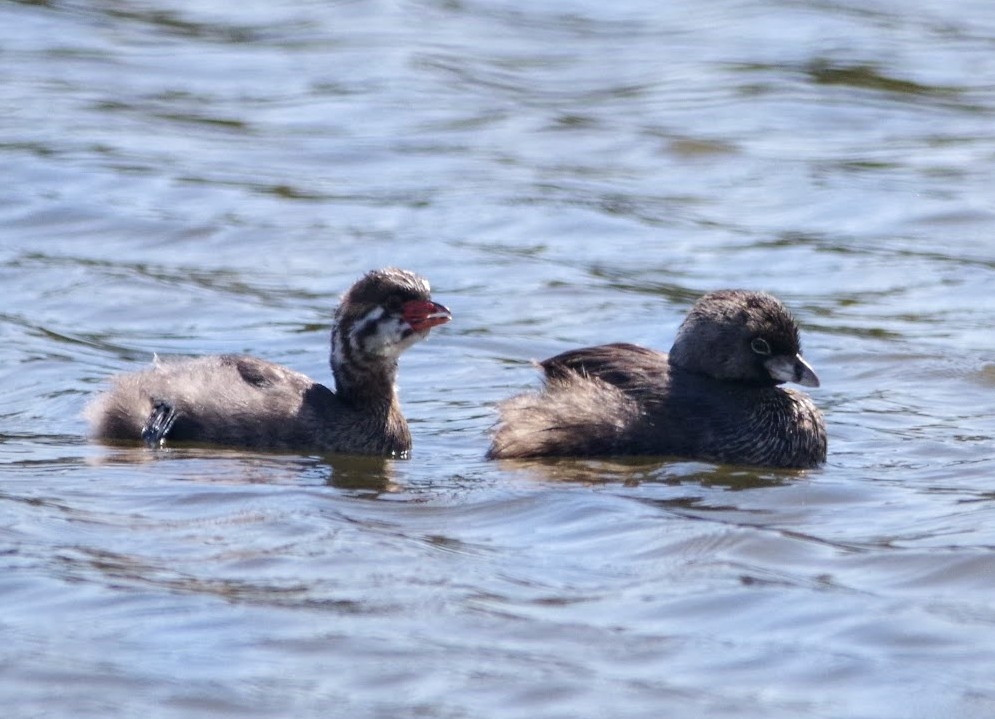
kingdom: Animalia
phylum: Chordata
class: Aves
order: Podicipediformes
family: Podicipedidae
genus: Podilymbus
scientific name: Podilymbus podiceps
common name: Pied-billed grebe
